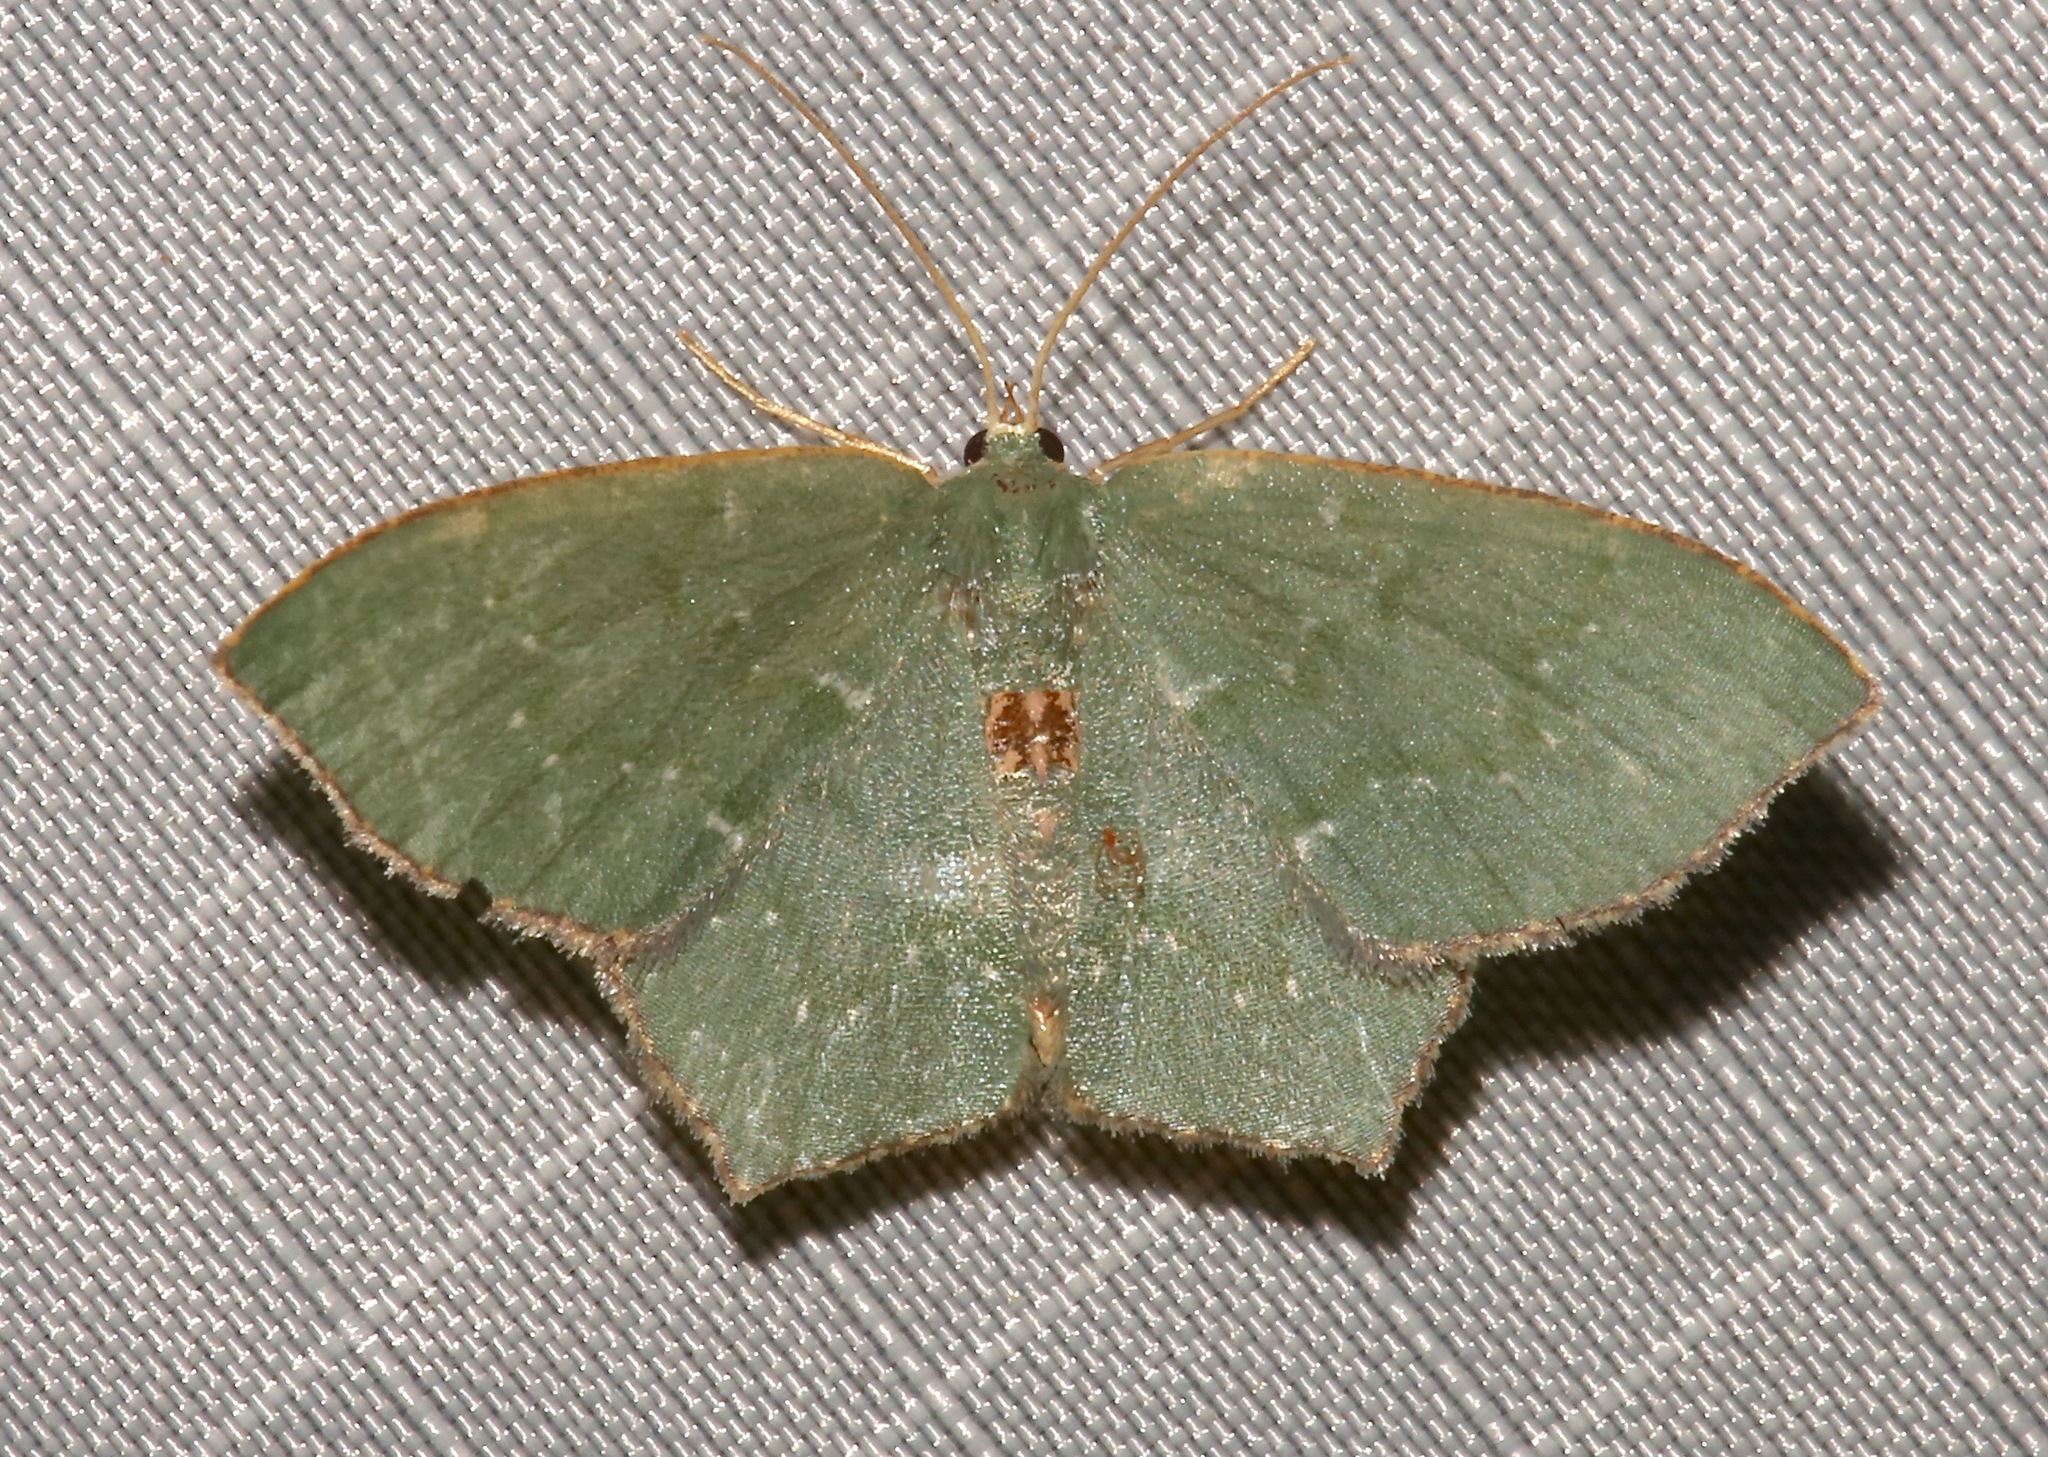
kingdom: Animalia
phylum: Arthropoda
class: Insecta
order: Lepidoptera
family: Geometridae
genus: Chloropteryx
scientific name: Chloropteryx tepperaria
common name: Angle winged emerald moth
